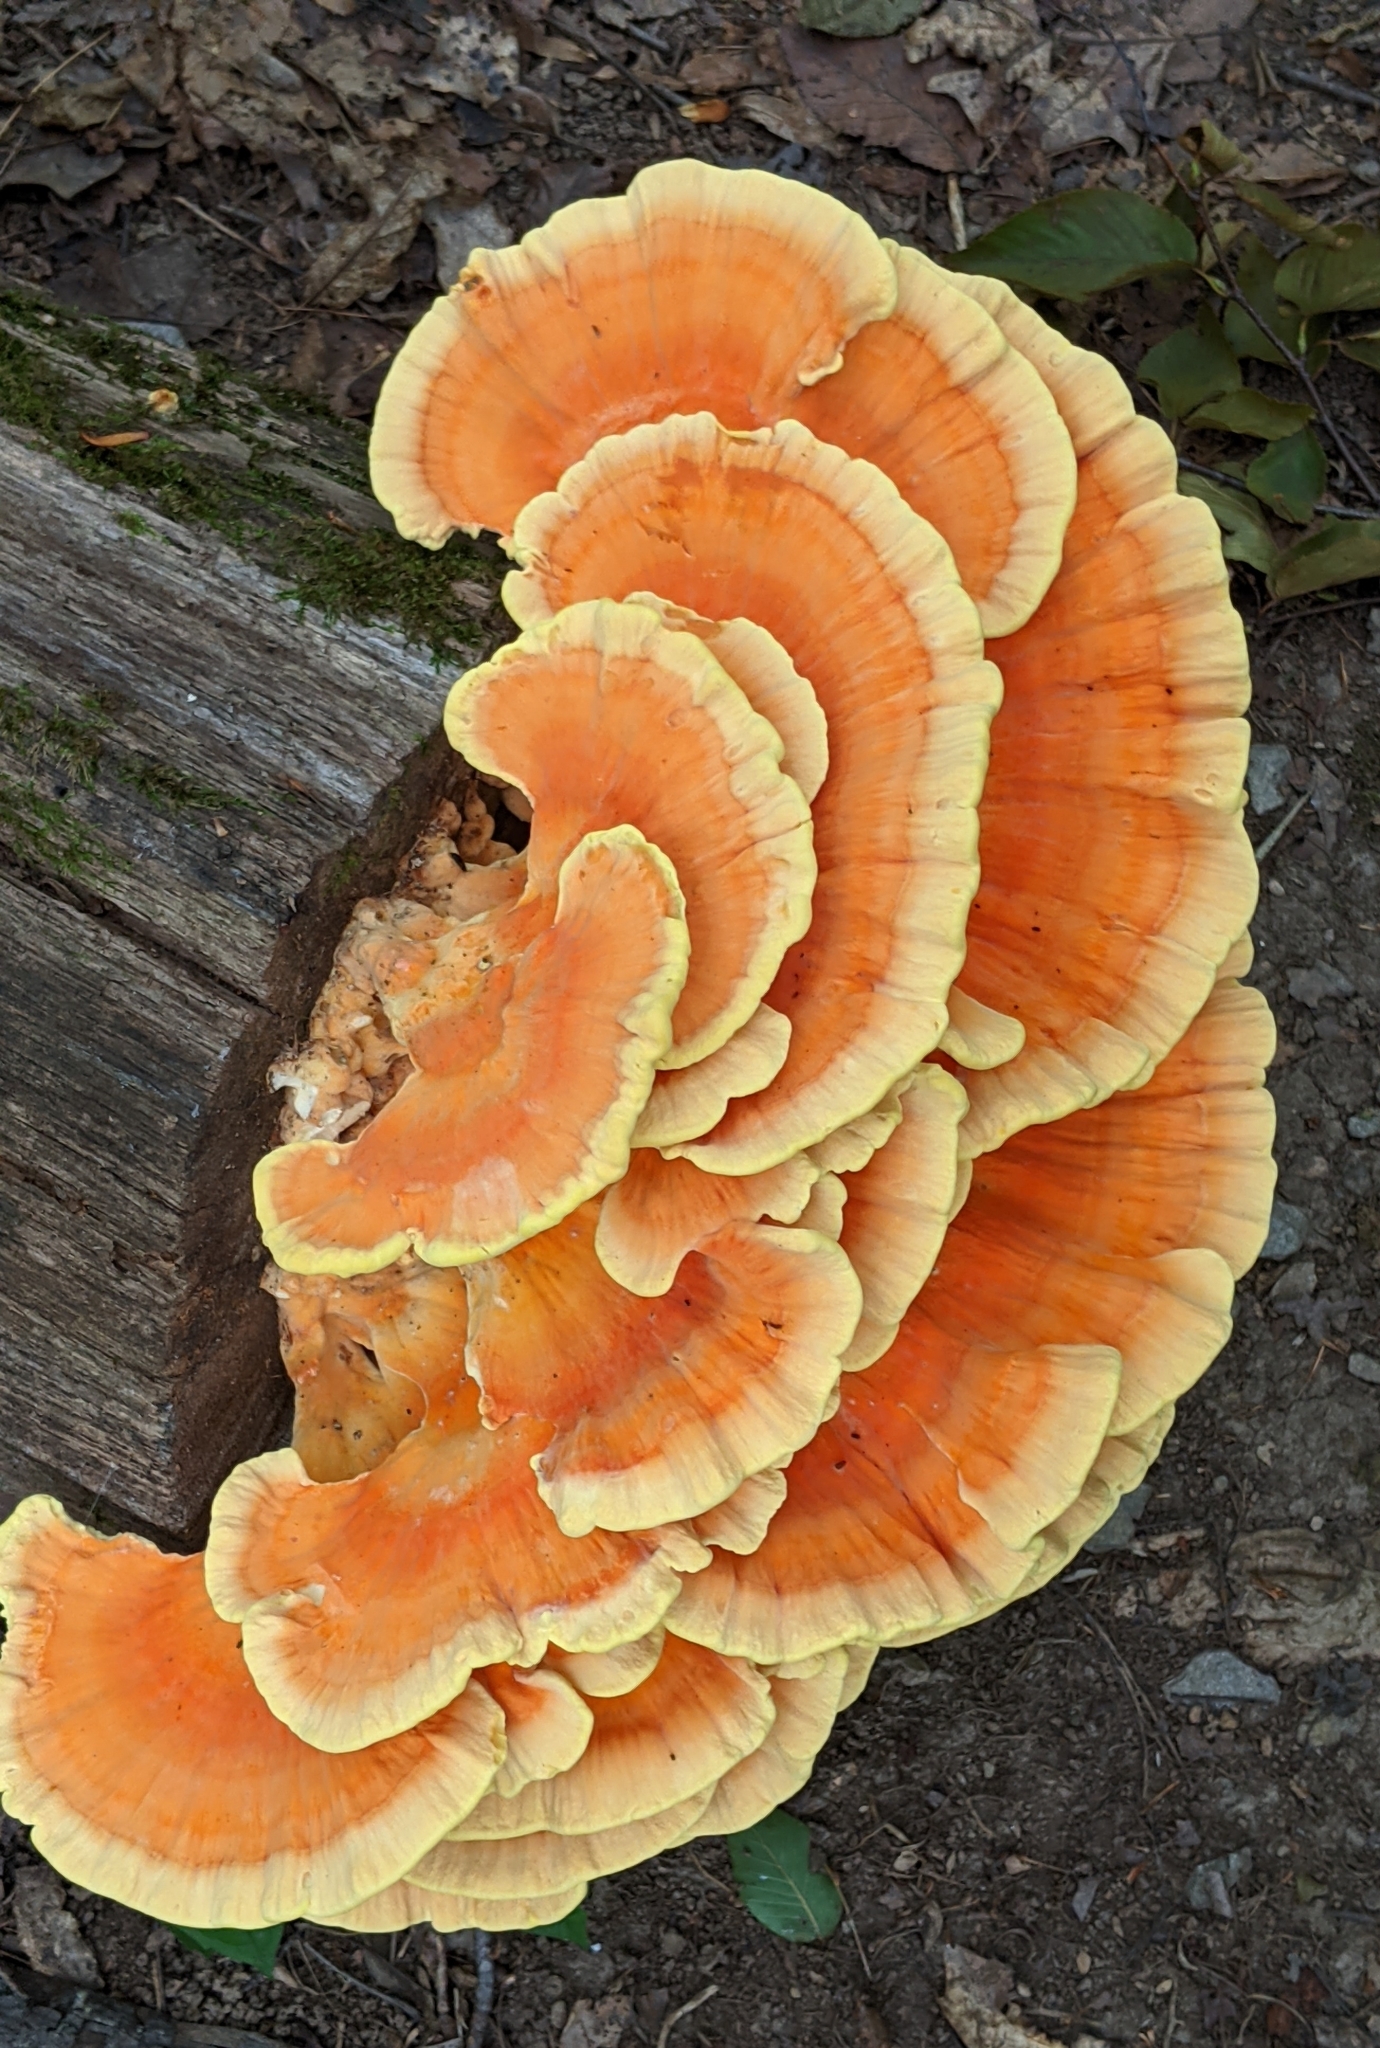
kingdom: Fungi
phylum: Basidiomycota
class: Agaricomycetes
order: Polyporales
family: Laetiporaceae
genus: Laetiporus
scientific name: Laetiporus sulphureus
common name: Chicken of the woods
